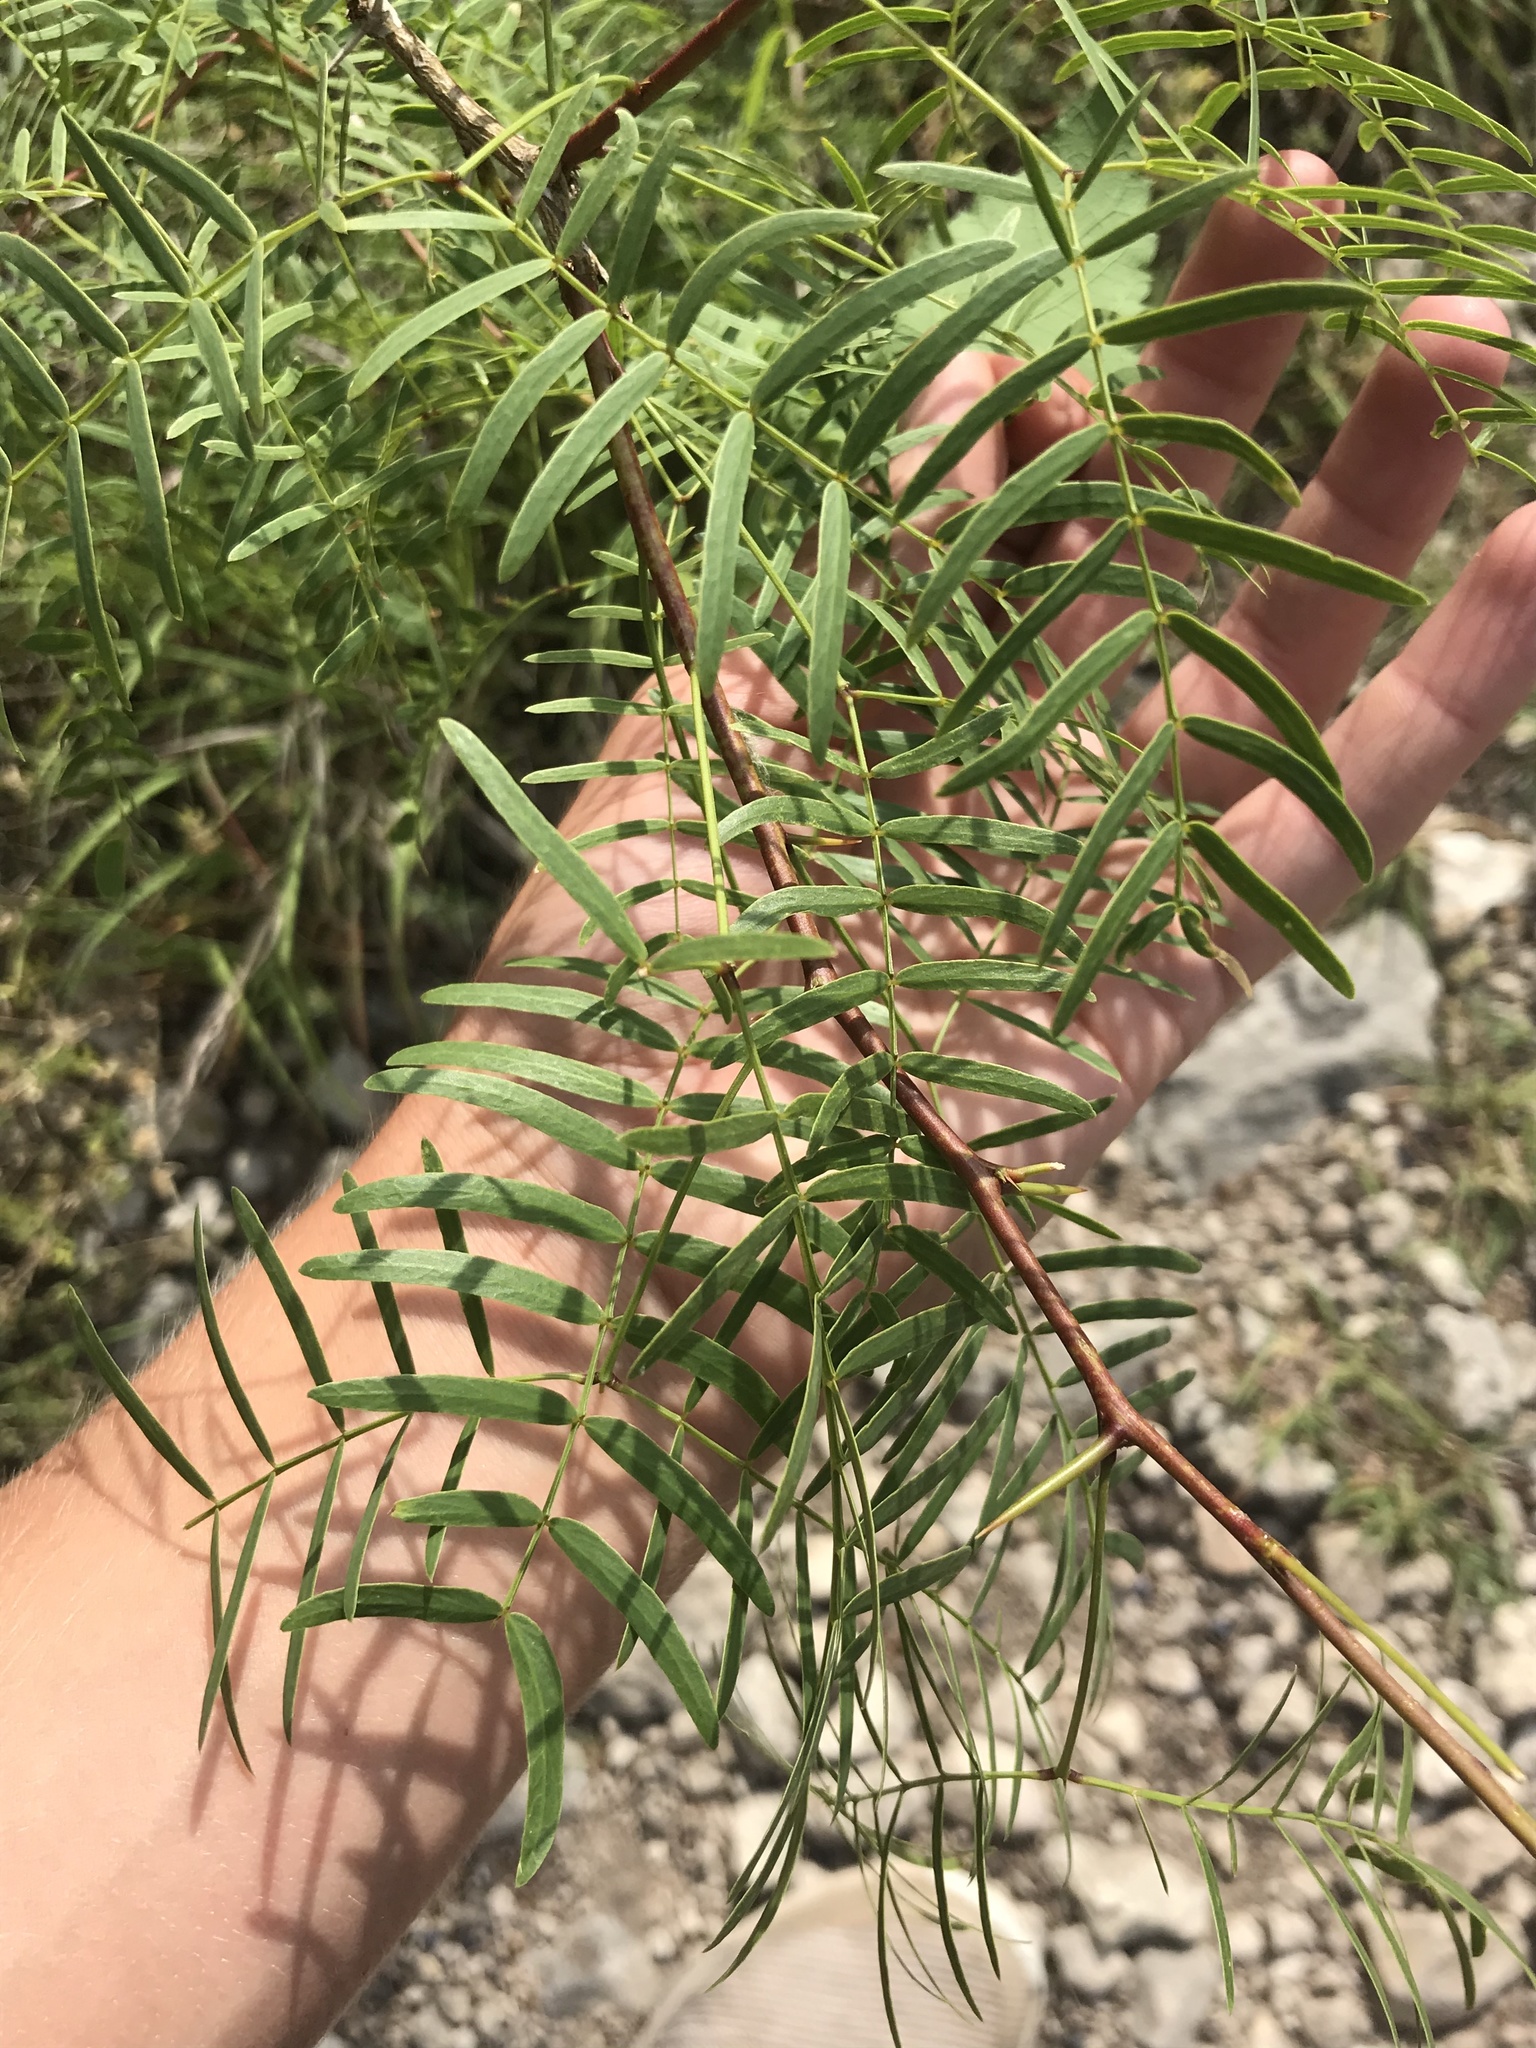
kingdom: Plantae
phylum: Tracheophyta
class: Magnoliopsida
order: Fabales
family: Fabaceae
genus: Prosopis
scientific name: Prosopis glandulosa
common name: Honey mesquite
